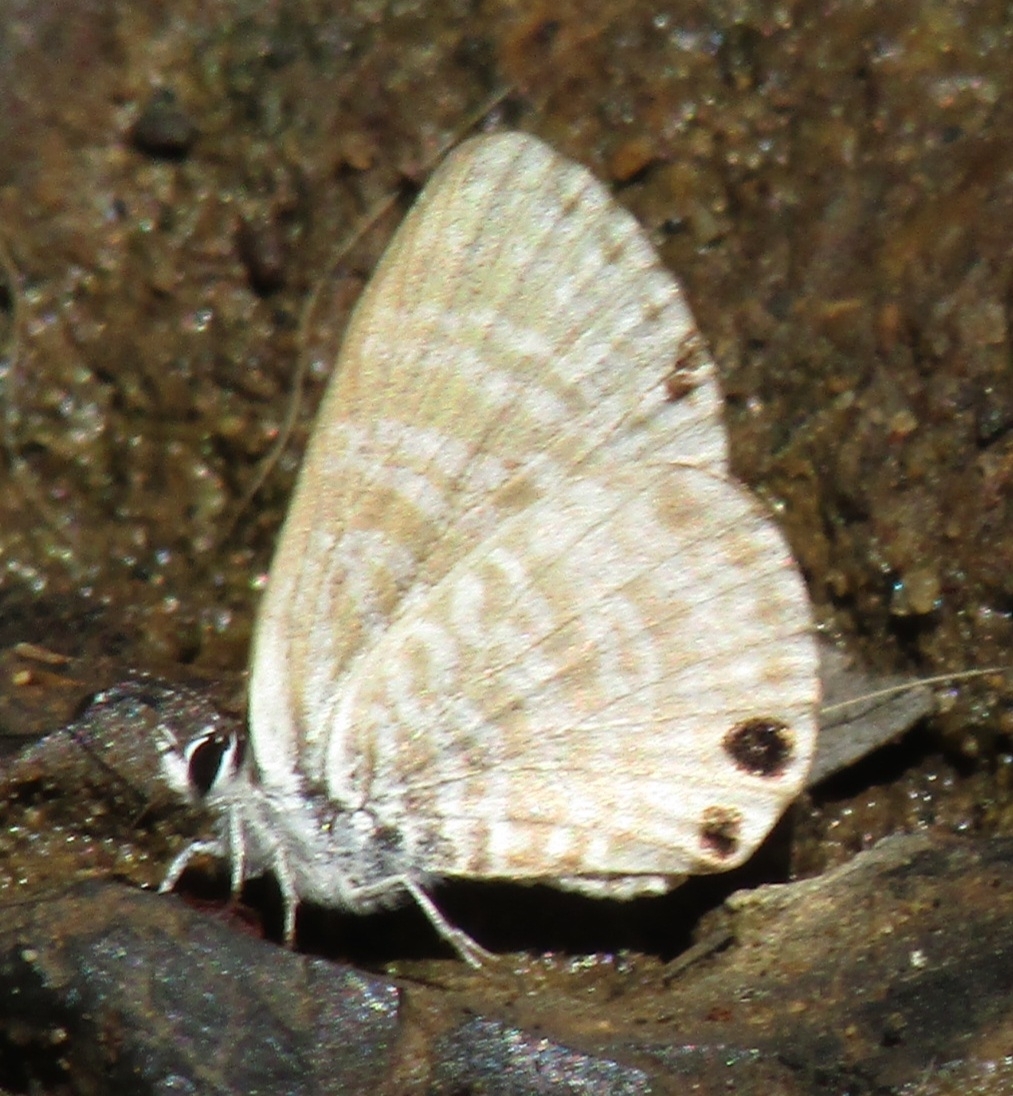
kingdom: Animalia
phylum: Arthropoda
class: Insecta
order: Lepidoptera
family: Lycaenidae
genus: Leptotes
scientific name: Leptotes marina
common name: Marine blue
